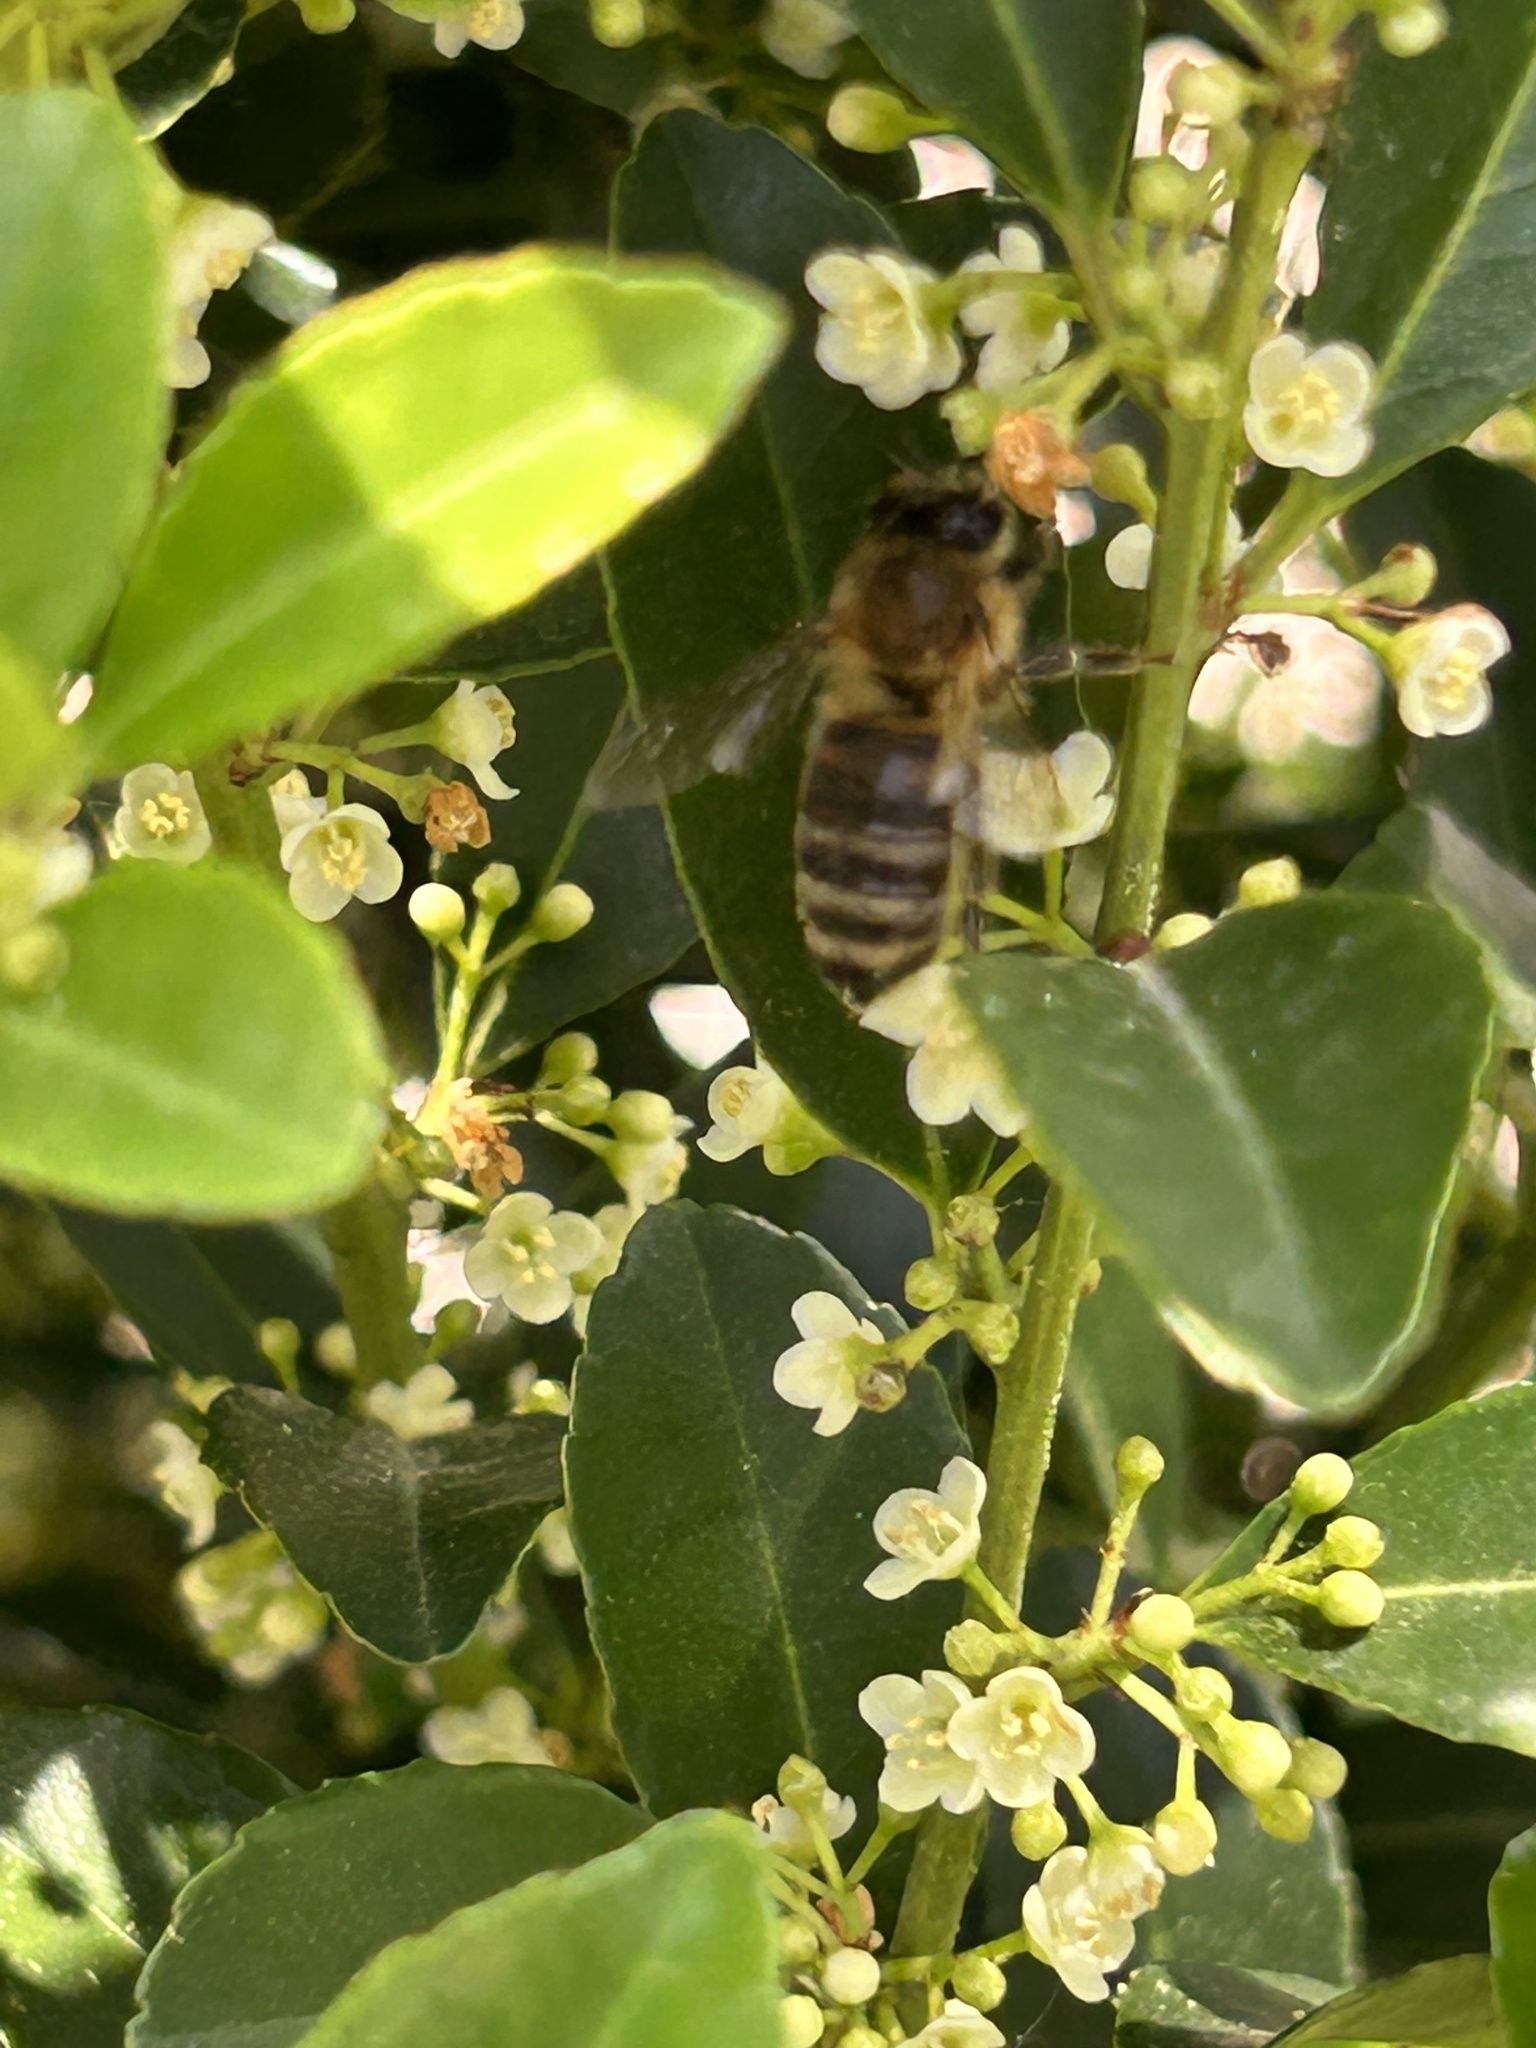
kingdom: Animalia
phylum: Arthropoda
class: Insecta
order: Hymenoptera
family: Apidae
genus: Apis
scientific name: Apis mellifera
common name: Honey bee
